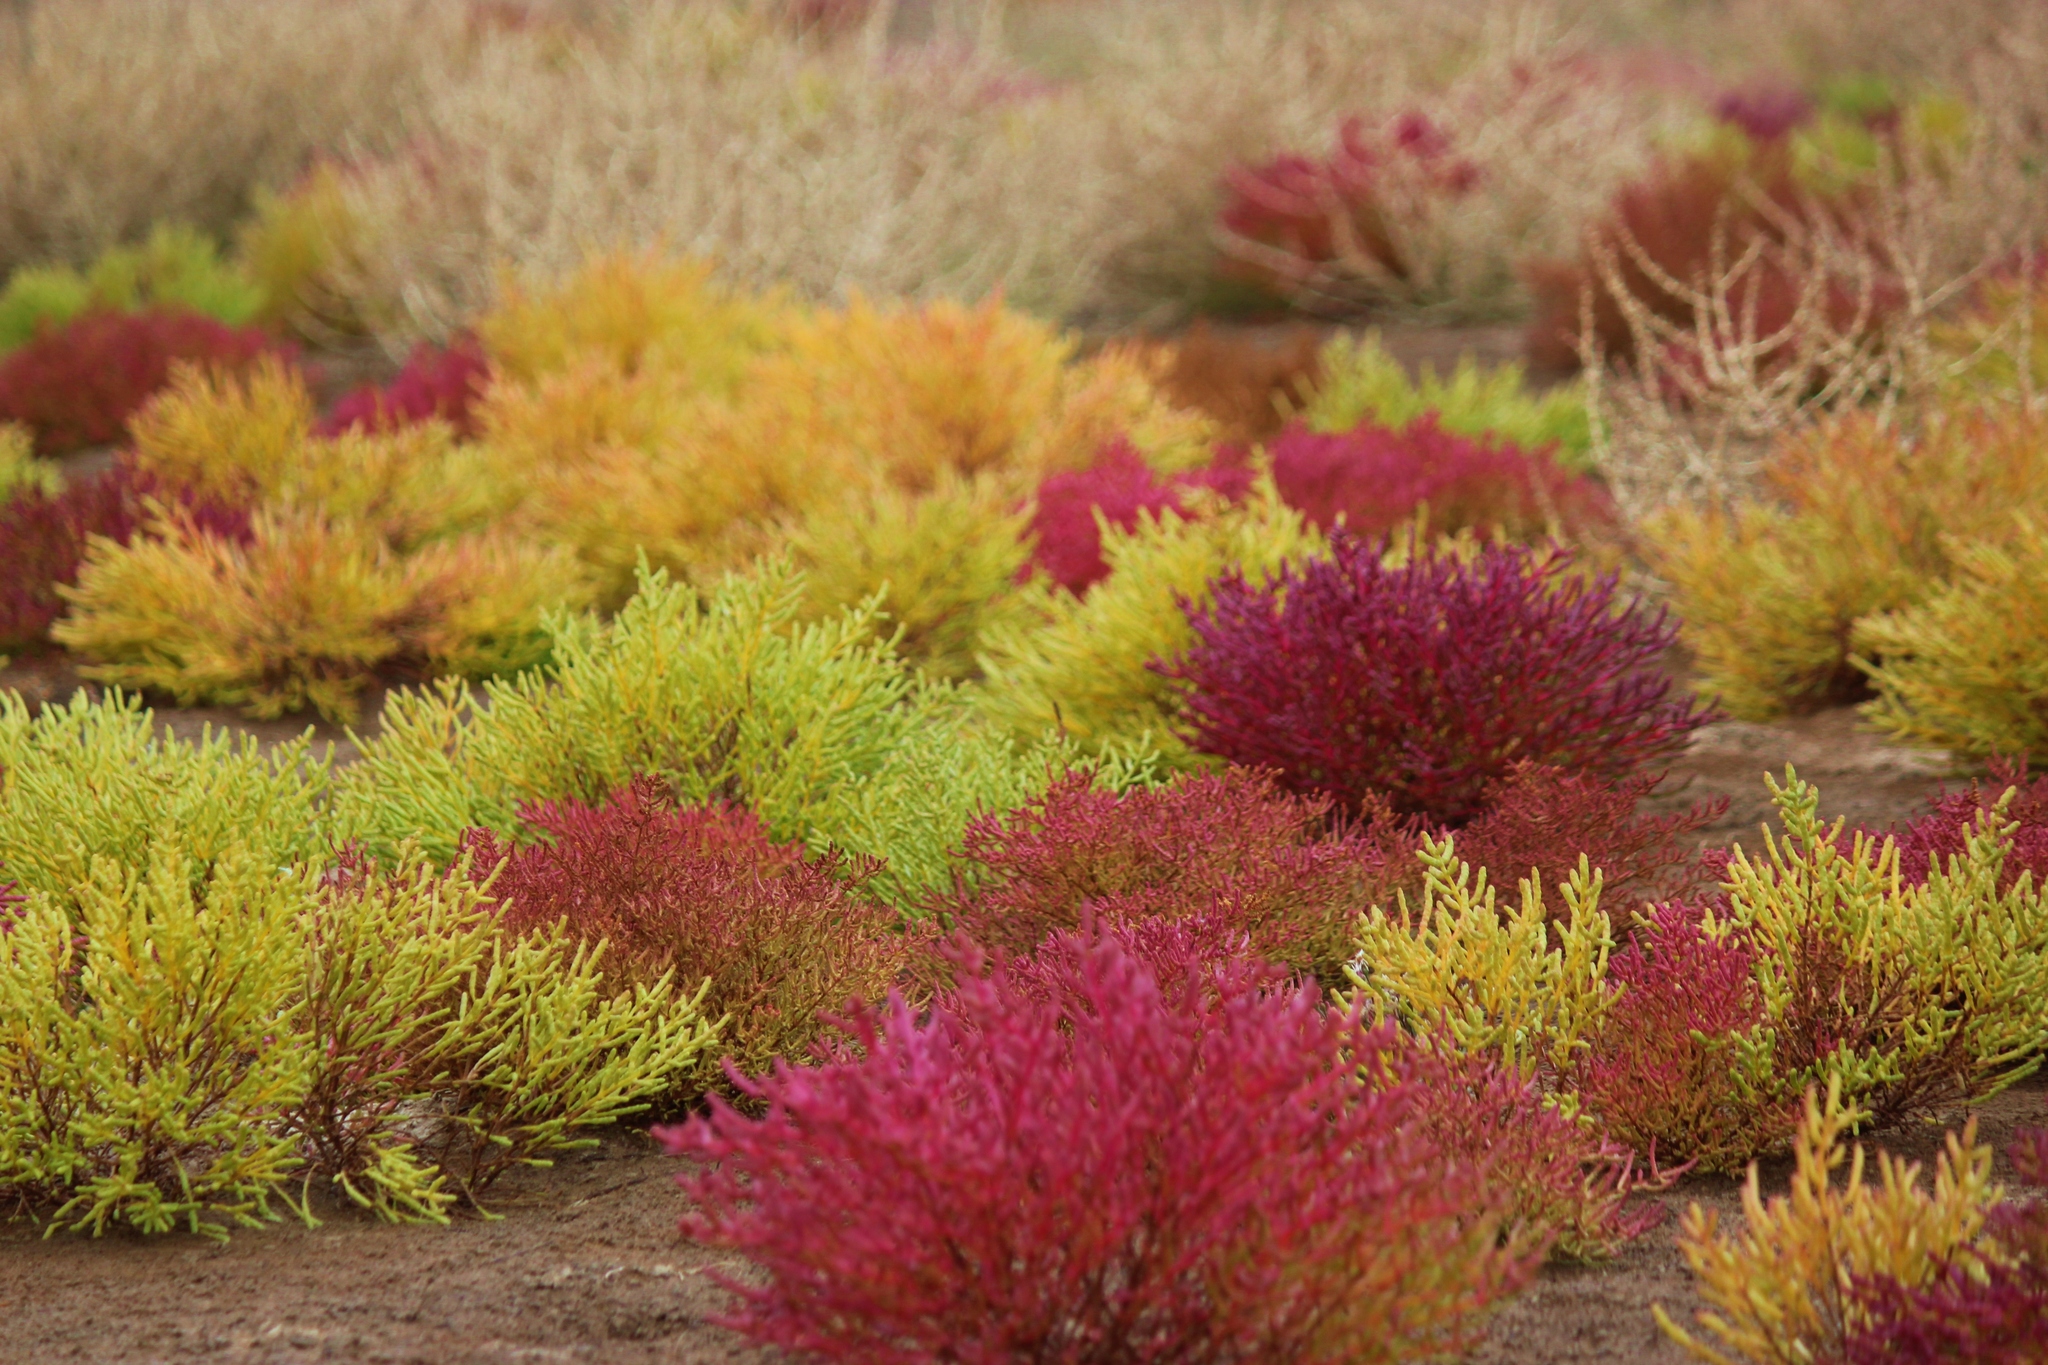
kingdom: Plantae
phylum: Tracheophyta
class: Magnoliopsida
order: Caryophyllales
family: Amaranthaceae
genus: Salicornia
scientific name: Salicornia perennans
